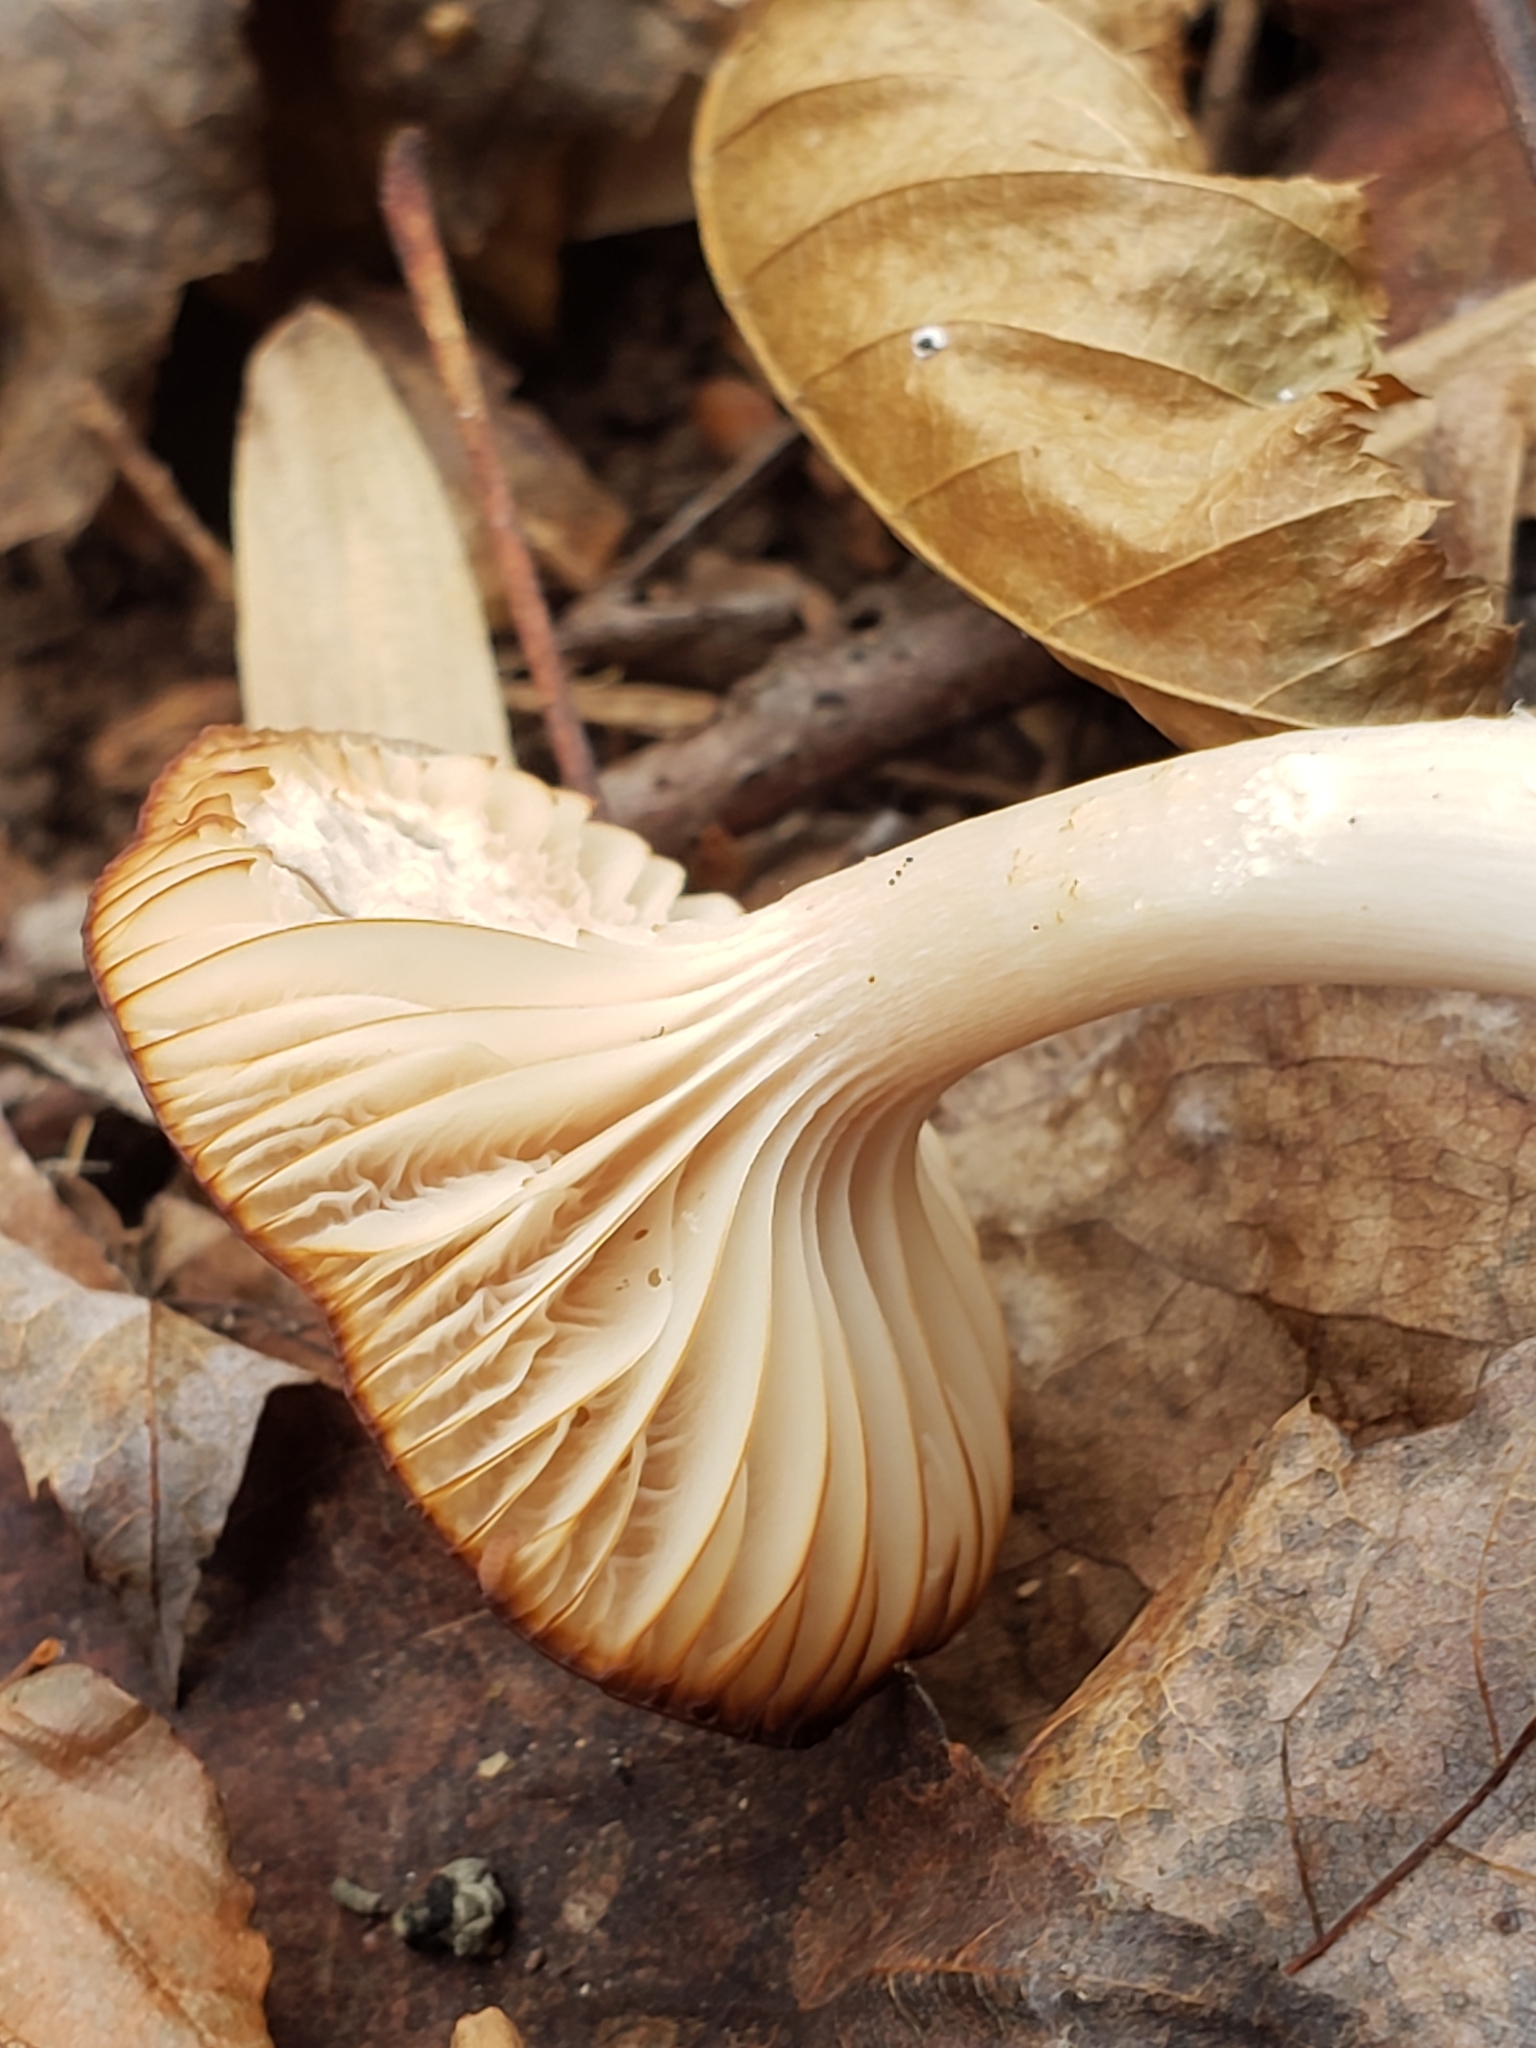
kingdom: Fungi
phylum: Basidiomycota
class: Agaricomycetes
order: Agaricales
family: Hygrophoraceae
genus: Cuphophyllus
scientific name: Cuphophyllus pratensis
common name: Meadow waxcap
